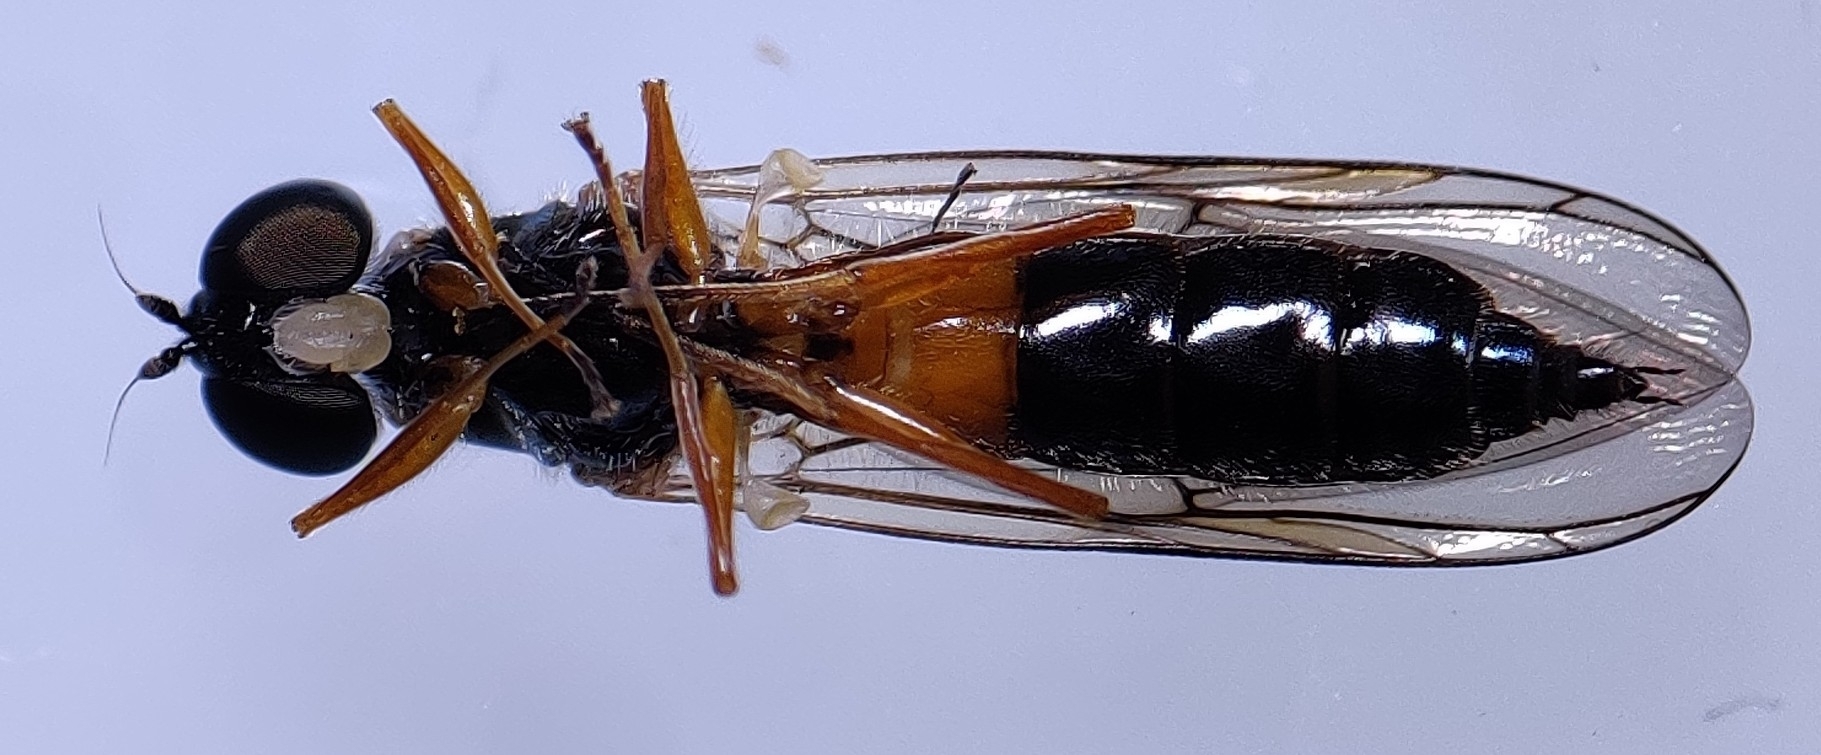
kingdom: Animalia
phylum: Arthropoda
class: Insecta
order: Diptera
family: Stratiomyidae
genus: Sargus
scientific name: Sargus bipunctatus
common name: Twin-spot centurion
